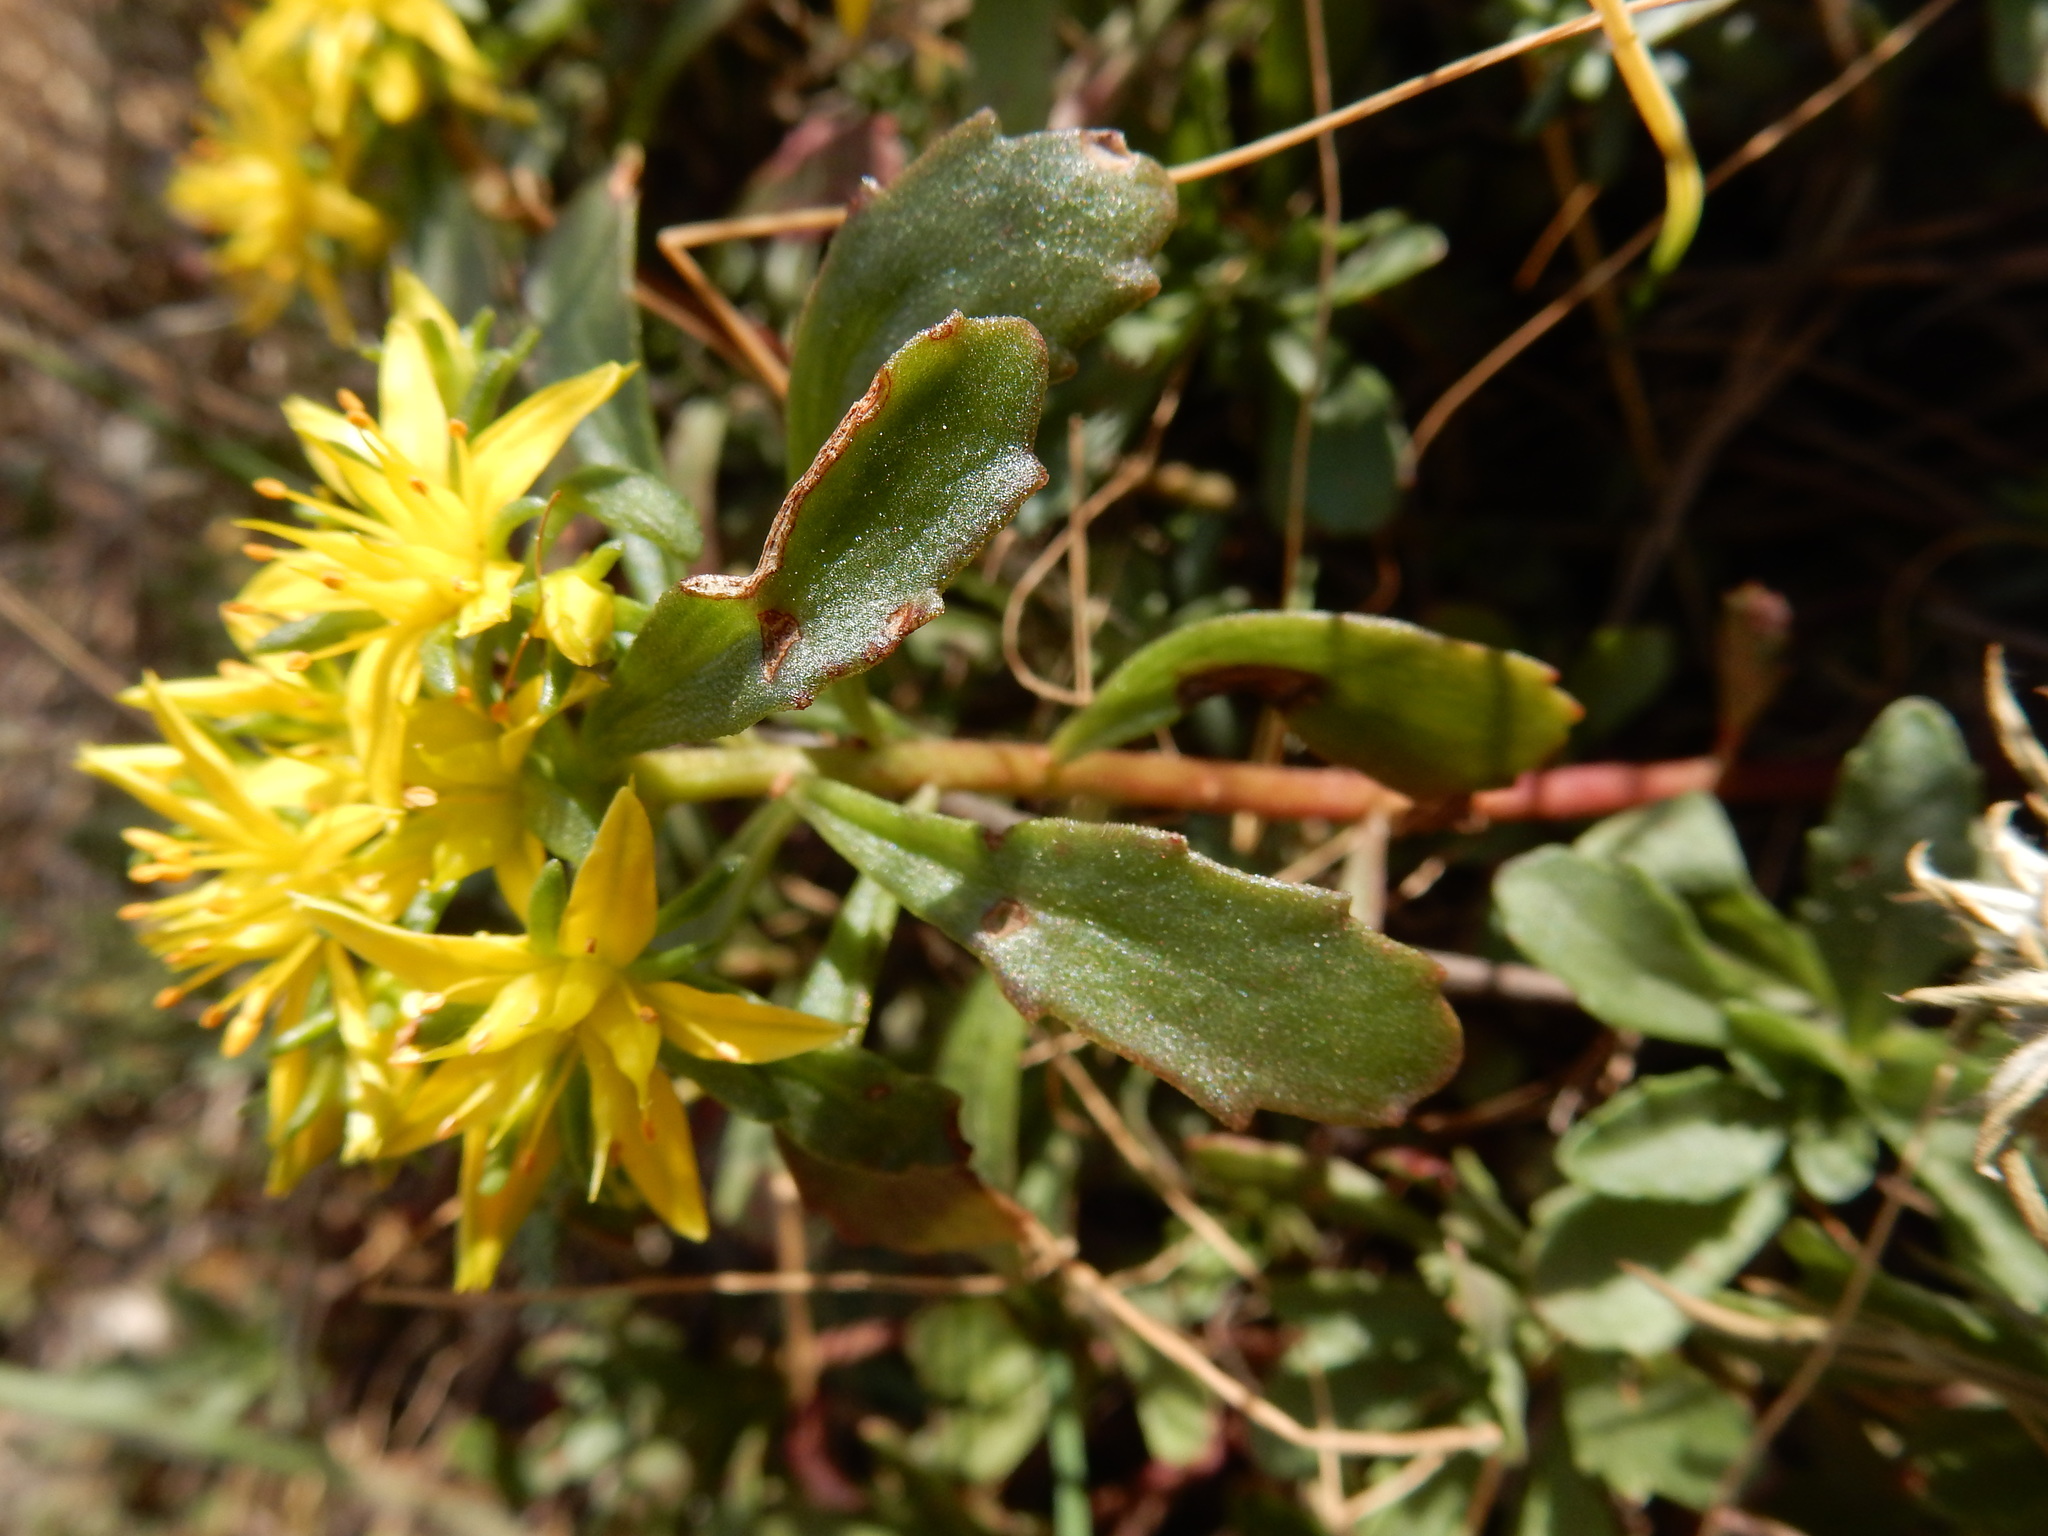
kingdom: Plantae
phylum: Tracheophyta
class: Magnoliopsida
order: Saxifragales
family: Crassulaceae
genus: Phedimus
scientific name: Phedimus hybridus
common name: Hybrid stonecrop
